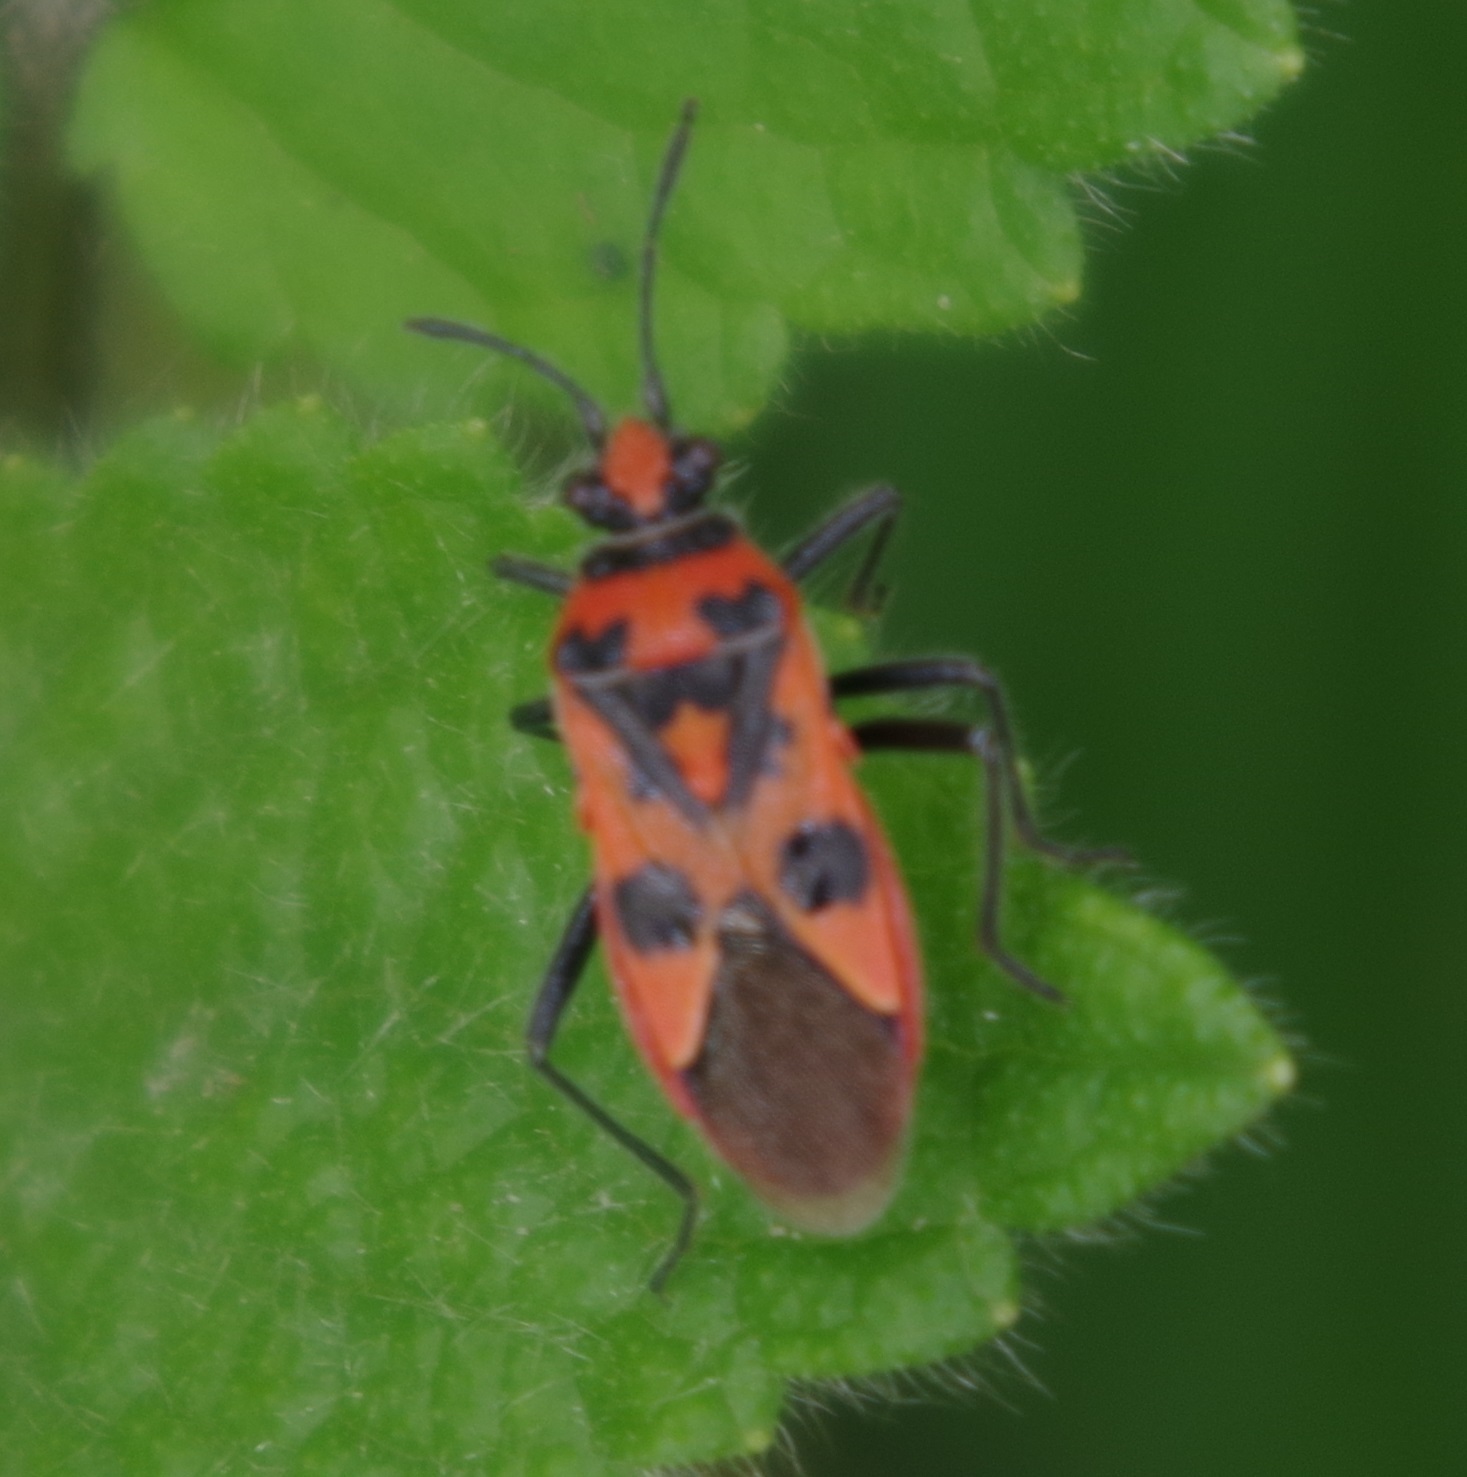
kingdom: Animalia
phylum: Arthropoda
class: Insecta
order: Hemiptera
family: Rhopalidae
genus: Corizus
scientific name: Corizus hyoscyami
